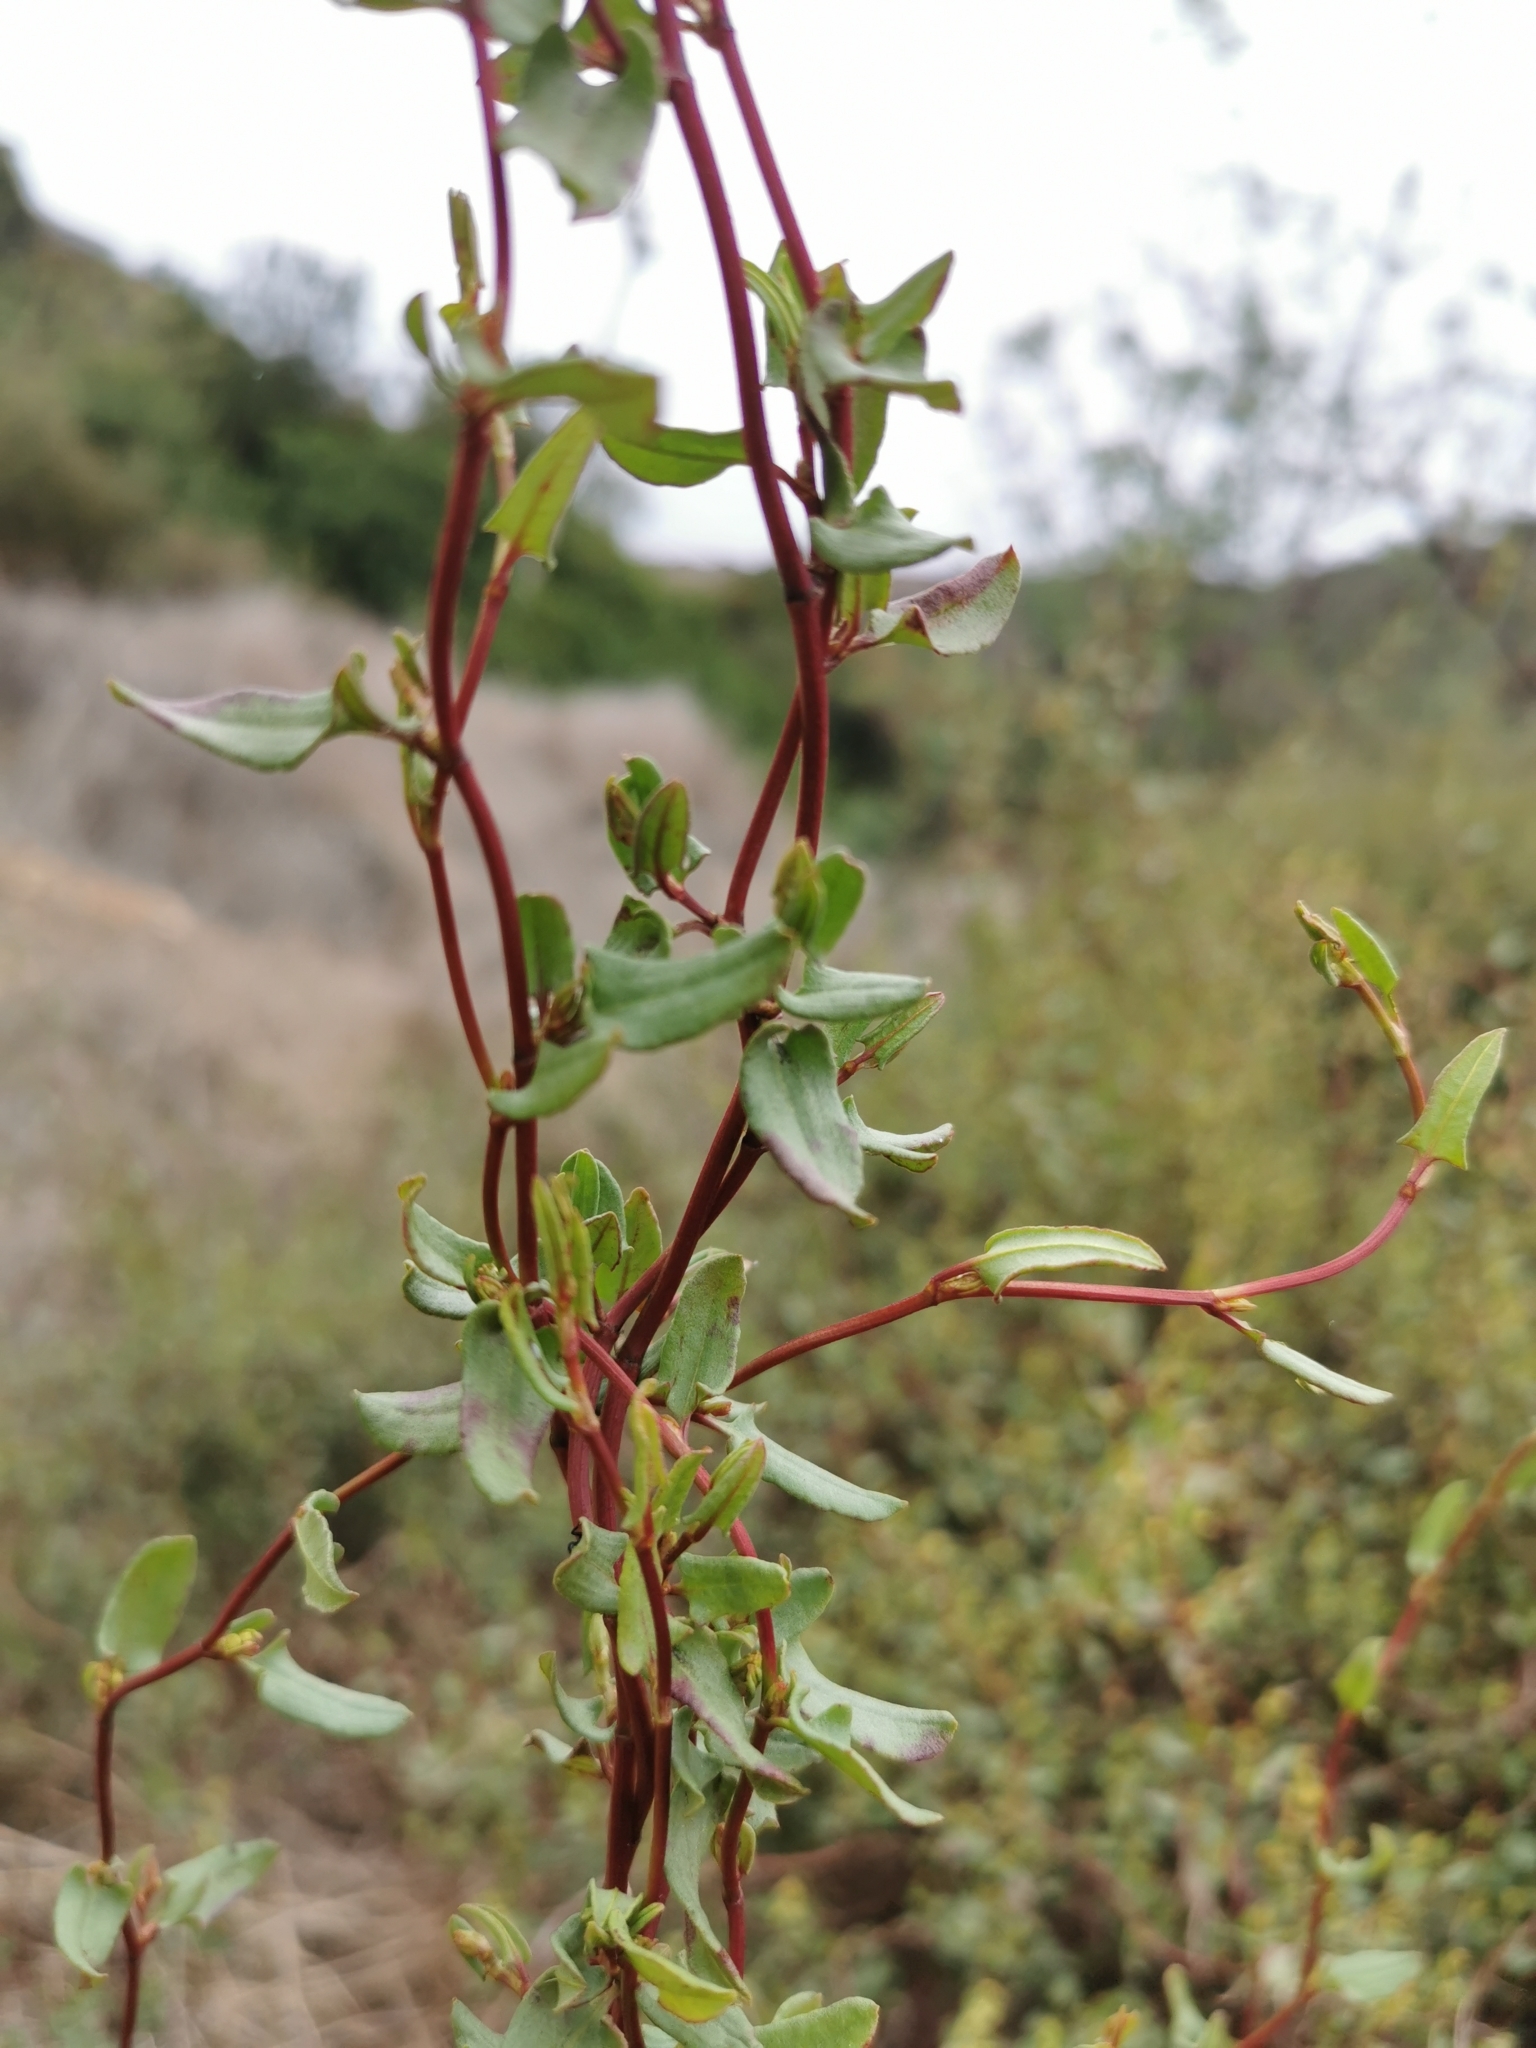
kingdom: Plantae
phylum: Tracheophyta
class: Magnoliopsida
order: Caryophyllales
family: Polygonaceae
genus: Muehlenbeckia
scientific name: Muehlenbeckia hastulata
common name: Wirevine
